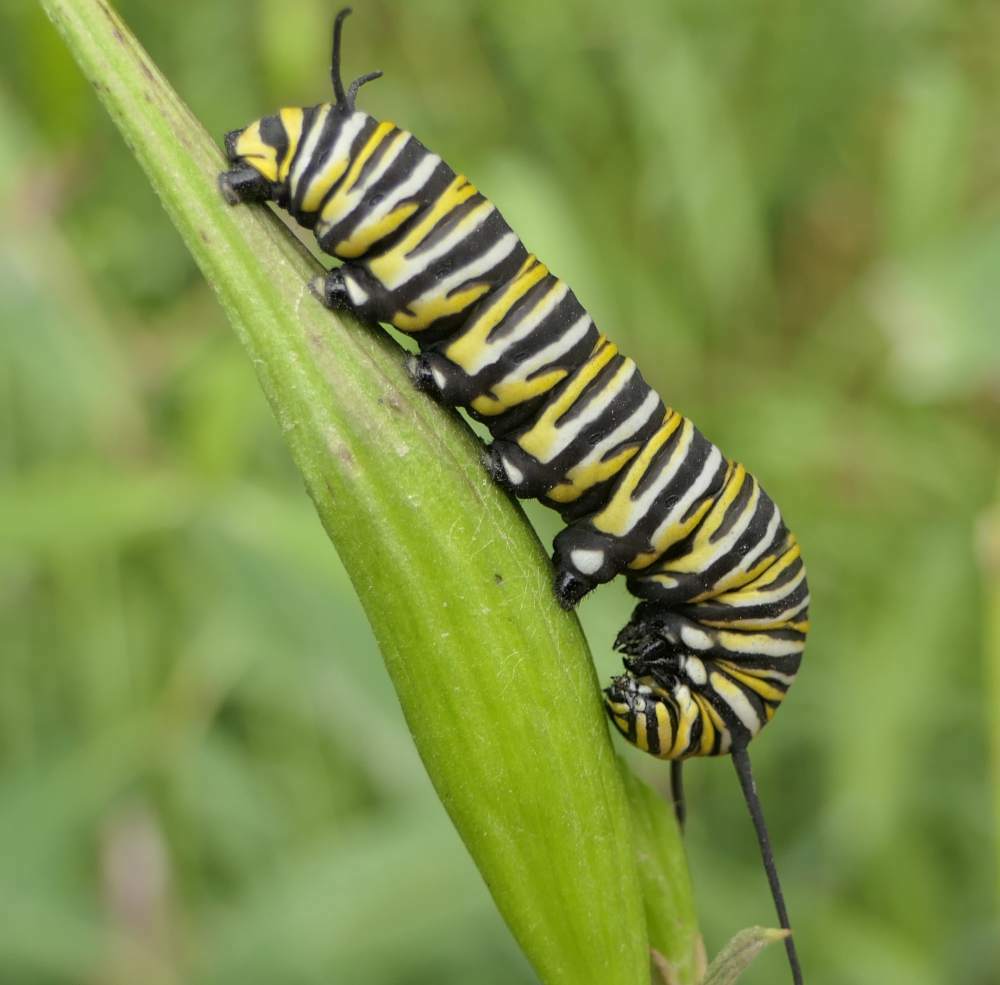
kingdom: Animalia
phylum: Arthropoda
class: Insecta
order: Lepidoptera
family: Nymphalidae
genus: Danaus
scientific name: Danaus plexippus
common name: Monarch
